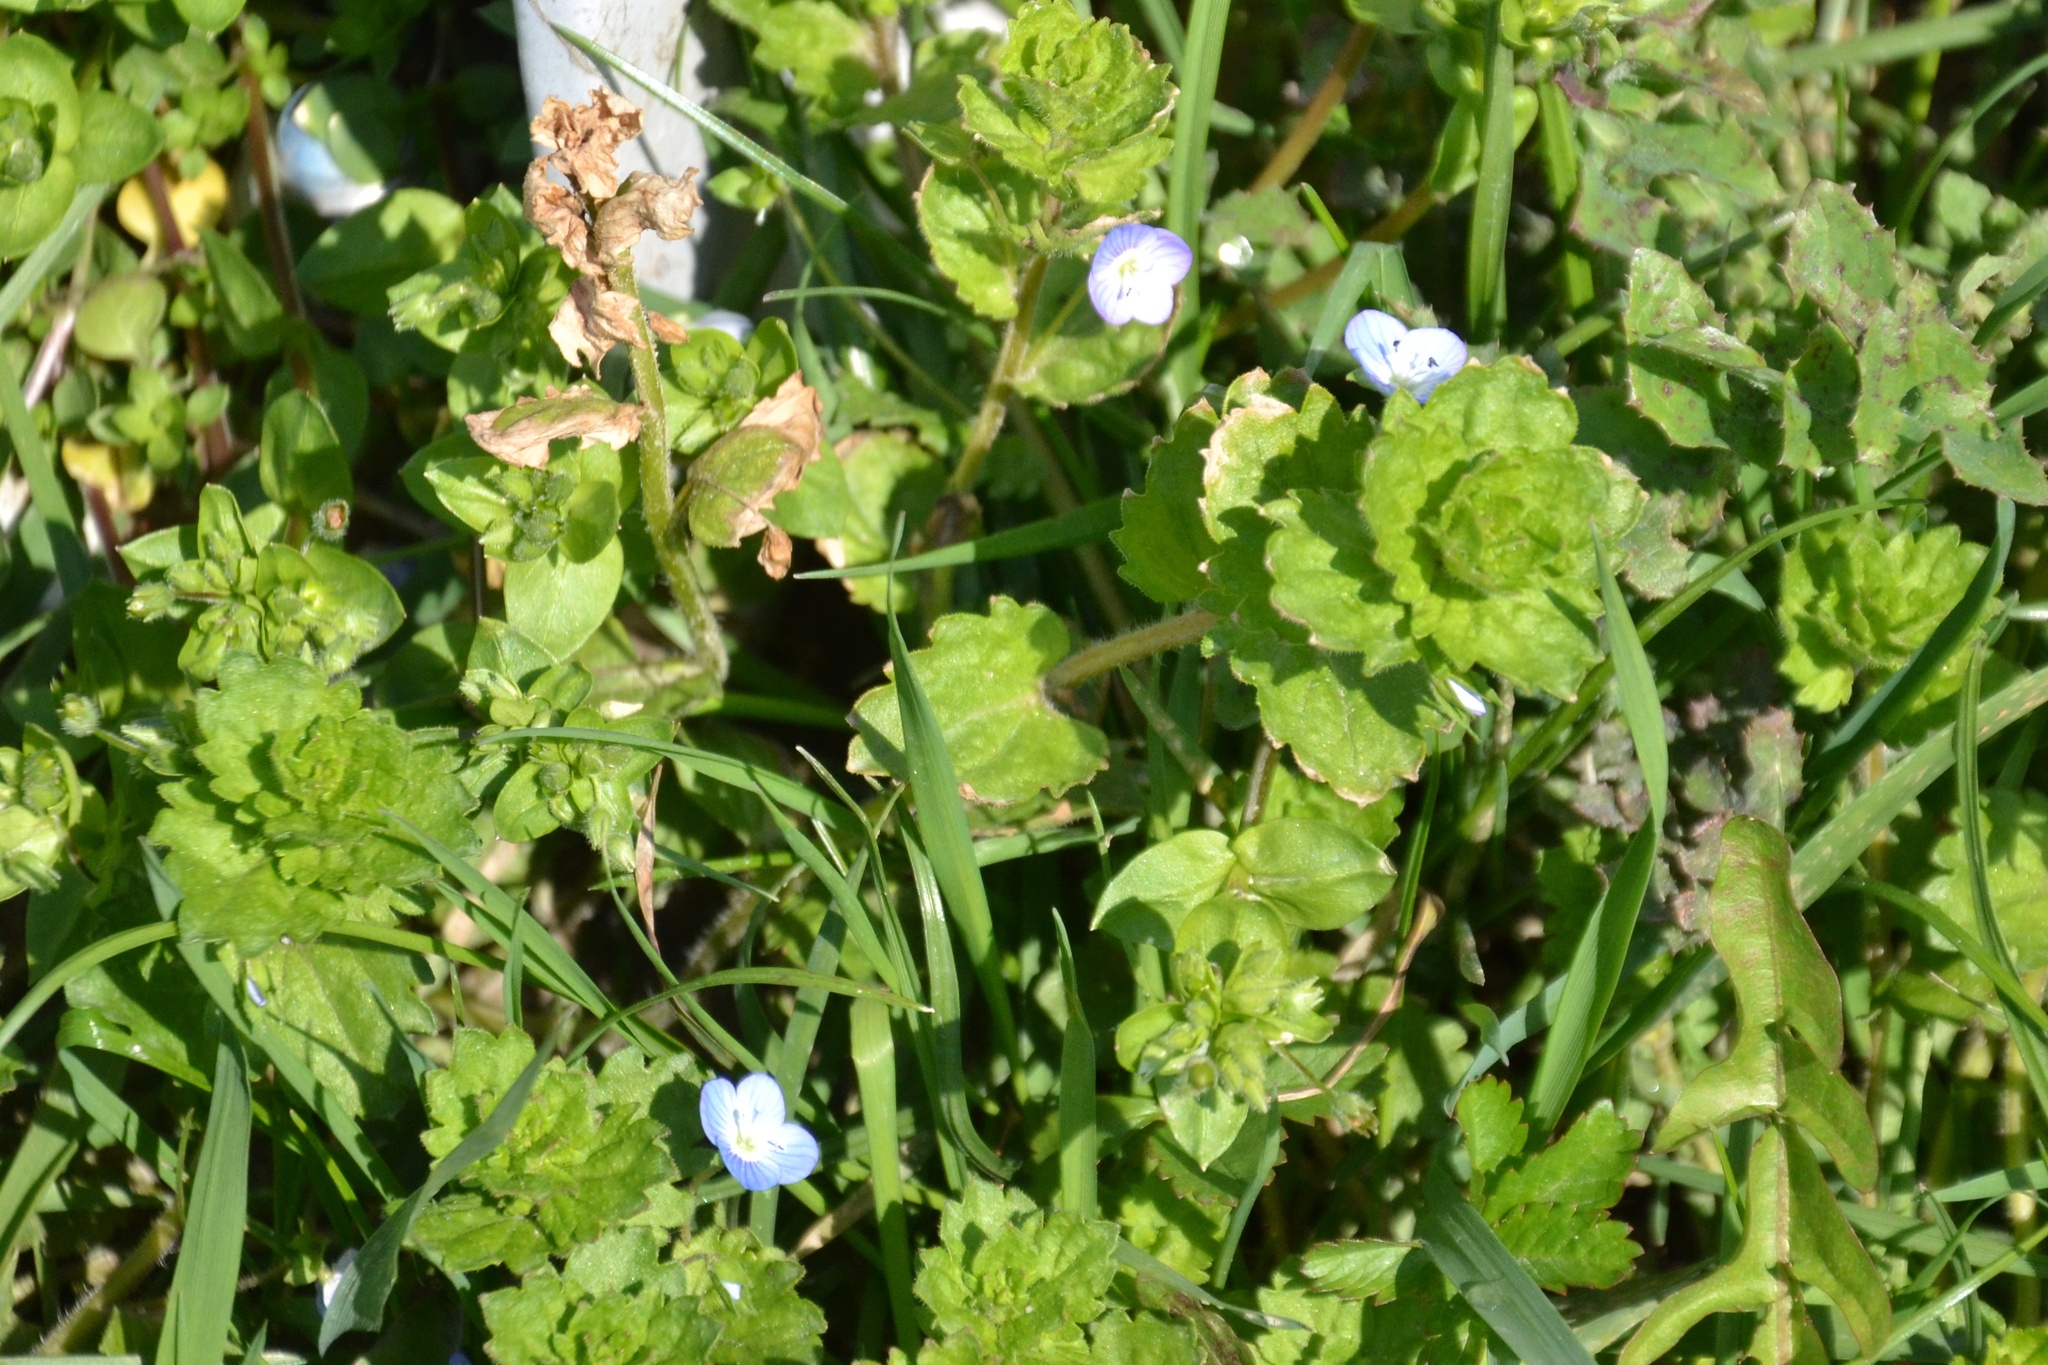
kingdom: Plantae
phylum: Tracheophyta
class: Magnoliopsida
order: Lamiales
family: Plantaginaceae
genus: Veronica
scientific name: Veronica persica
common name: Common field-speedwell
